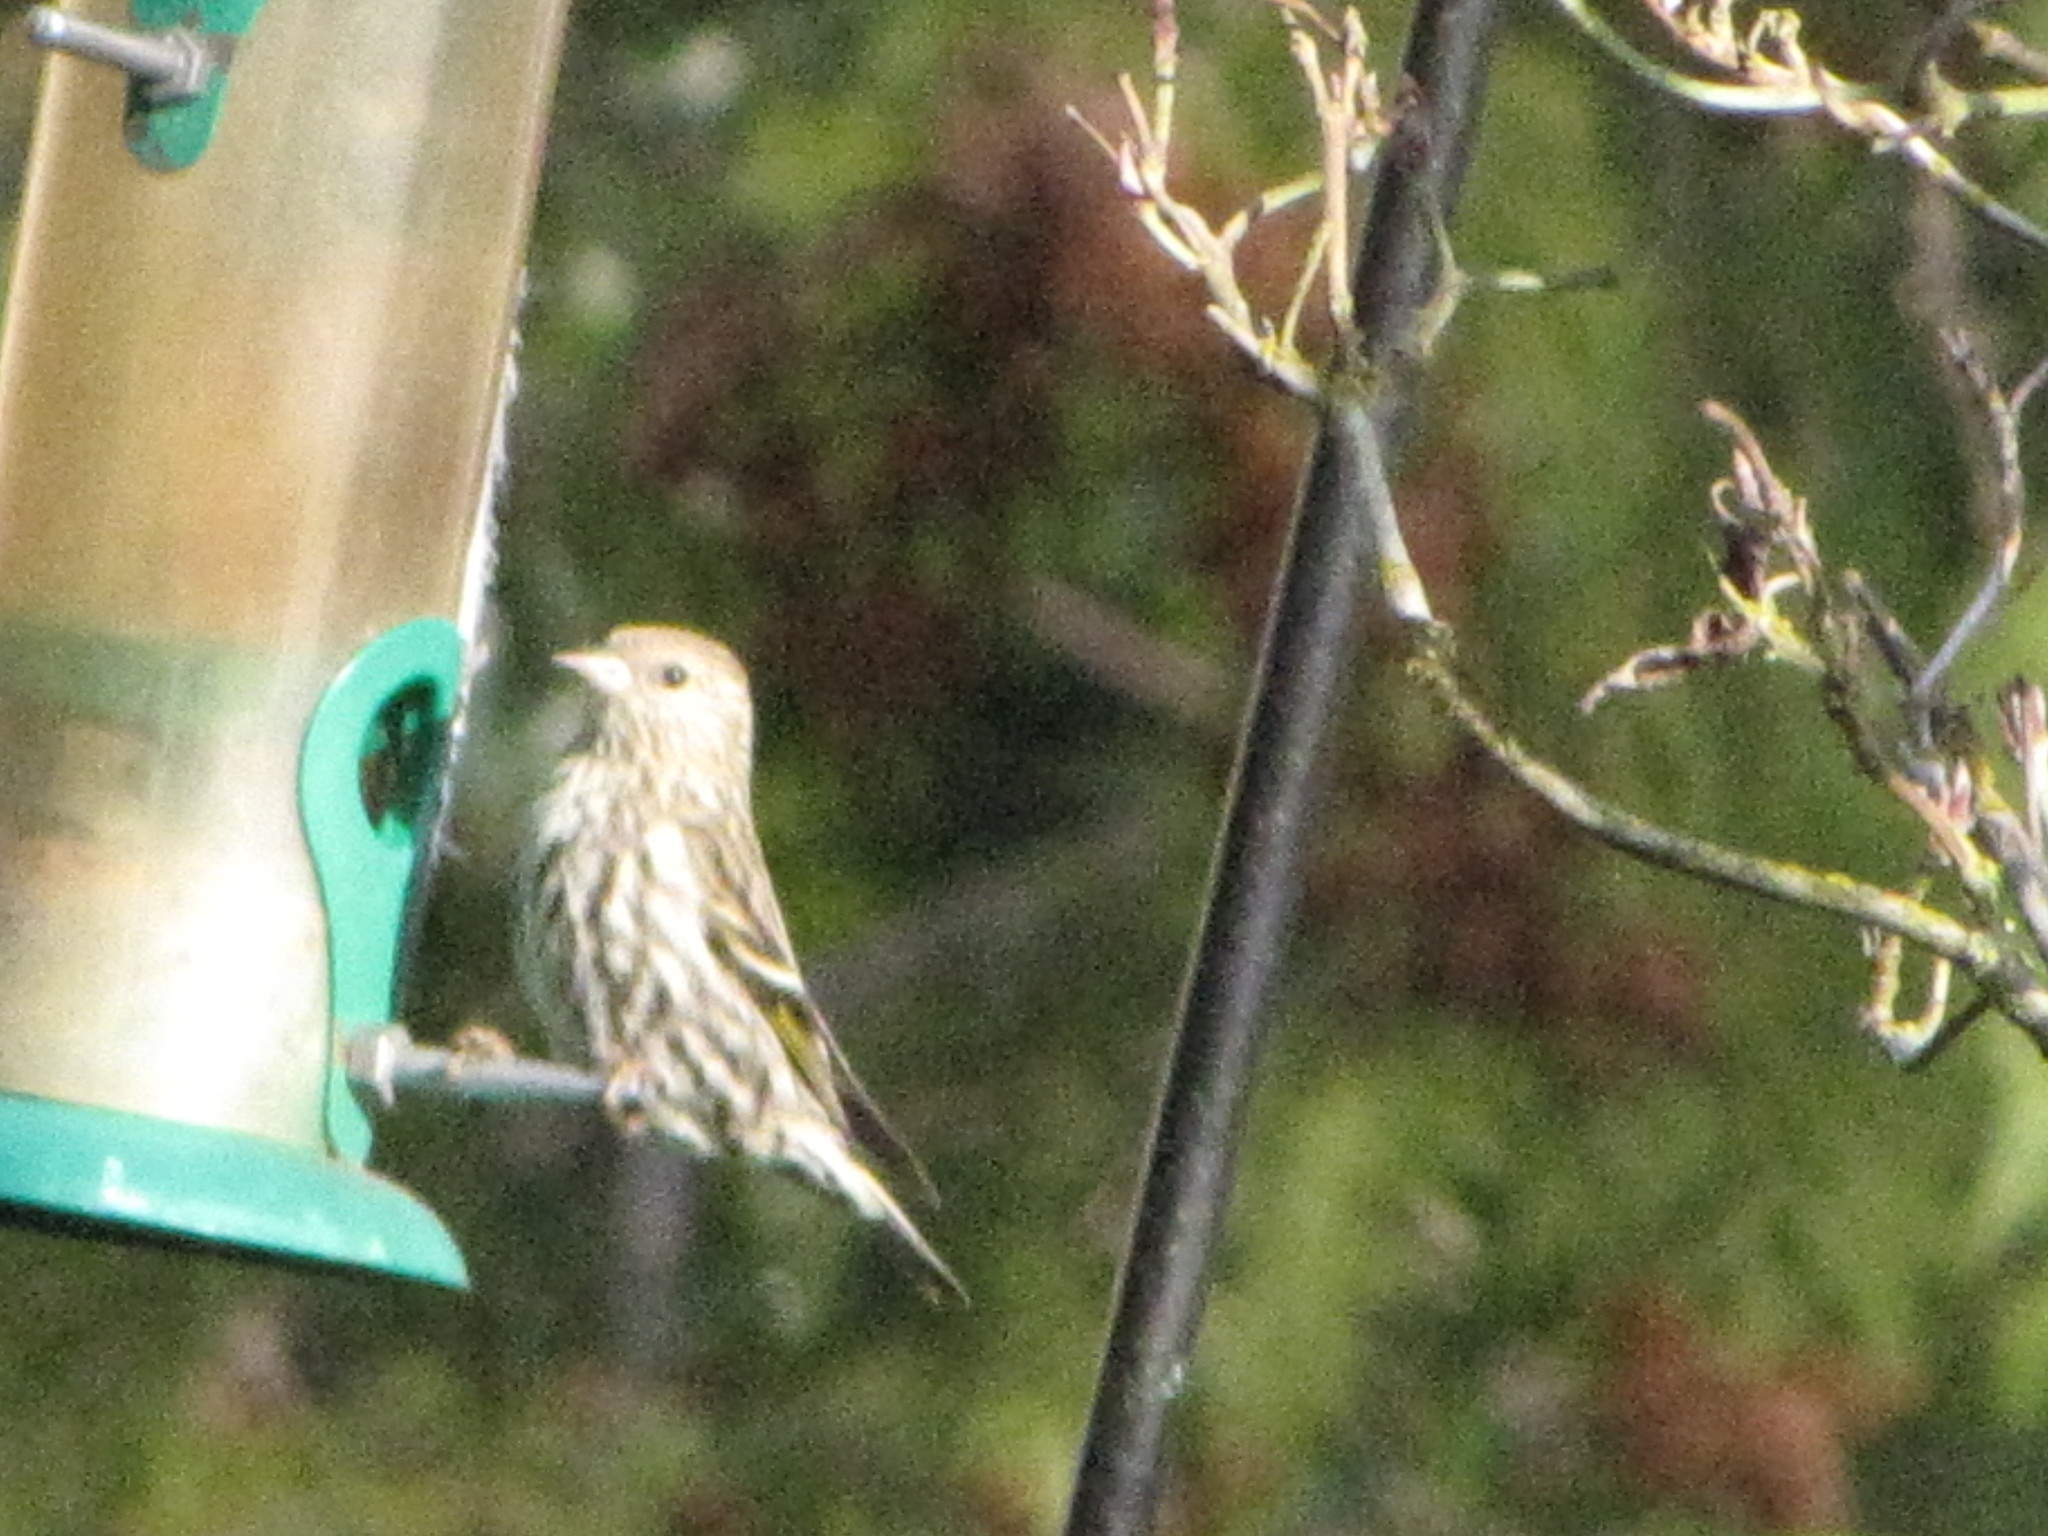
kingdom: Animalia
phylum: Chordata
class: Aves
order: Passeriformes
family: Fringillidae
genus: Spinus
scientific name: Spinus pinus
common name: Pine siskin
